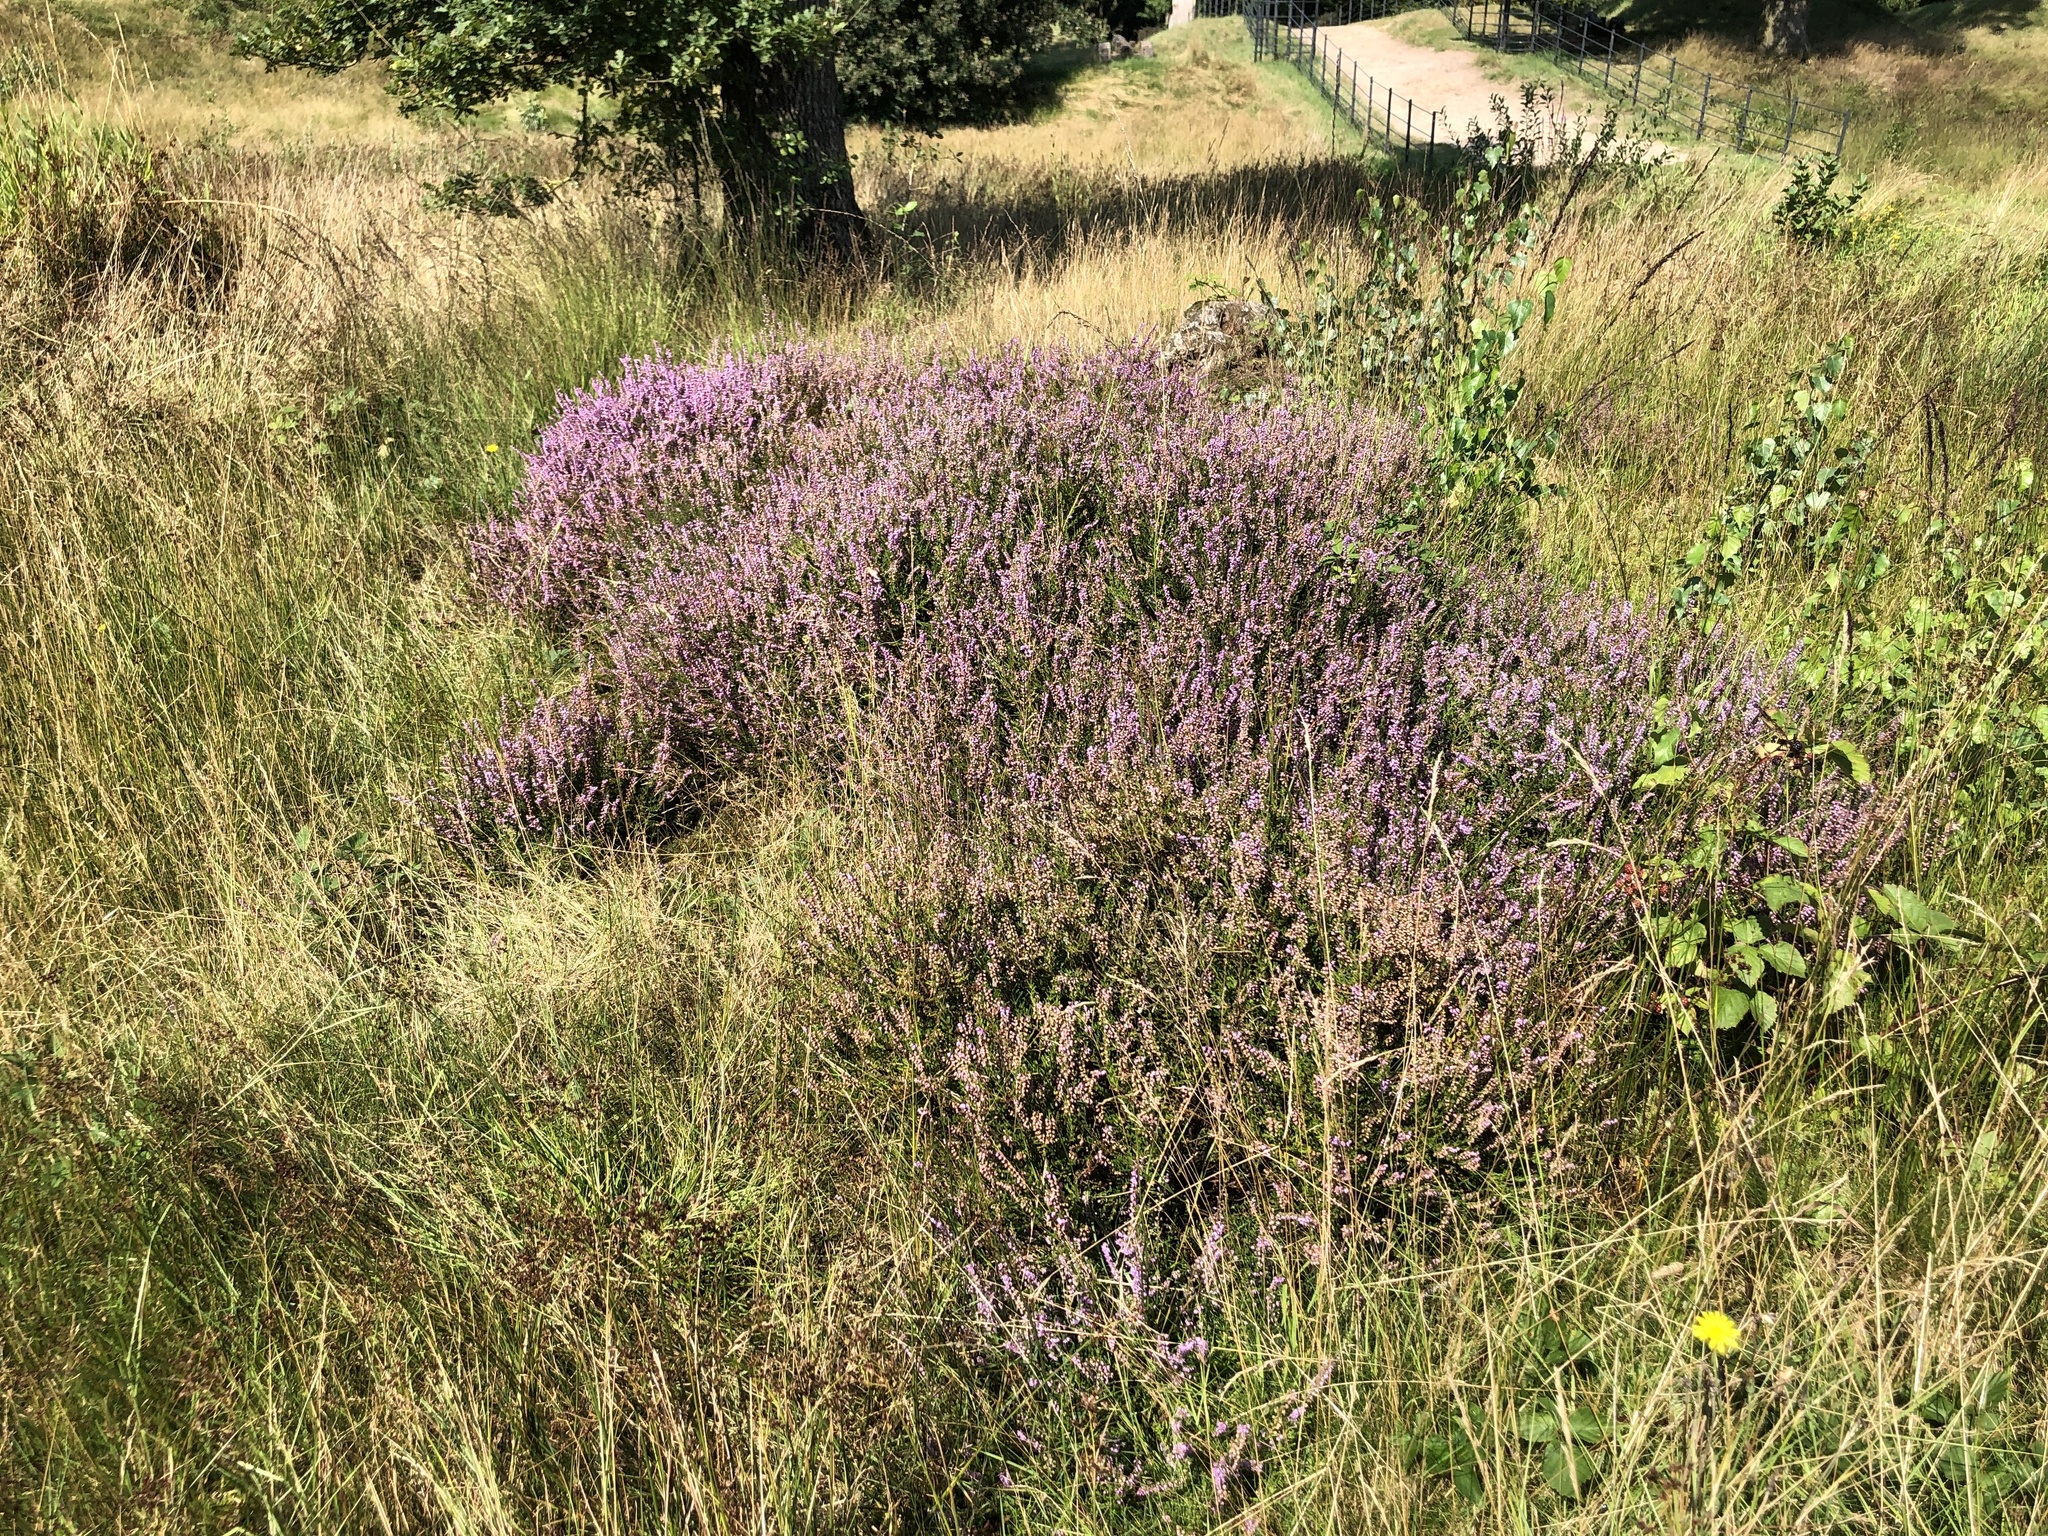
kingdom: Plantae
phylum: Tracheophyta
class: Magnoliopsida
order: Ericales
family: Ericaceae
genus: Calluna
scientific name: Calluna vulgaris
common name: Heather
